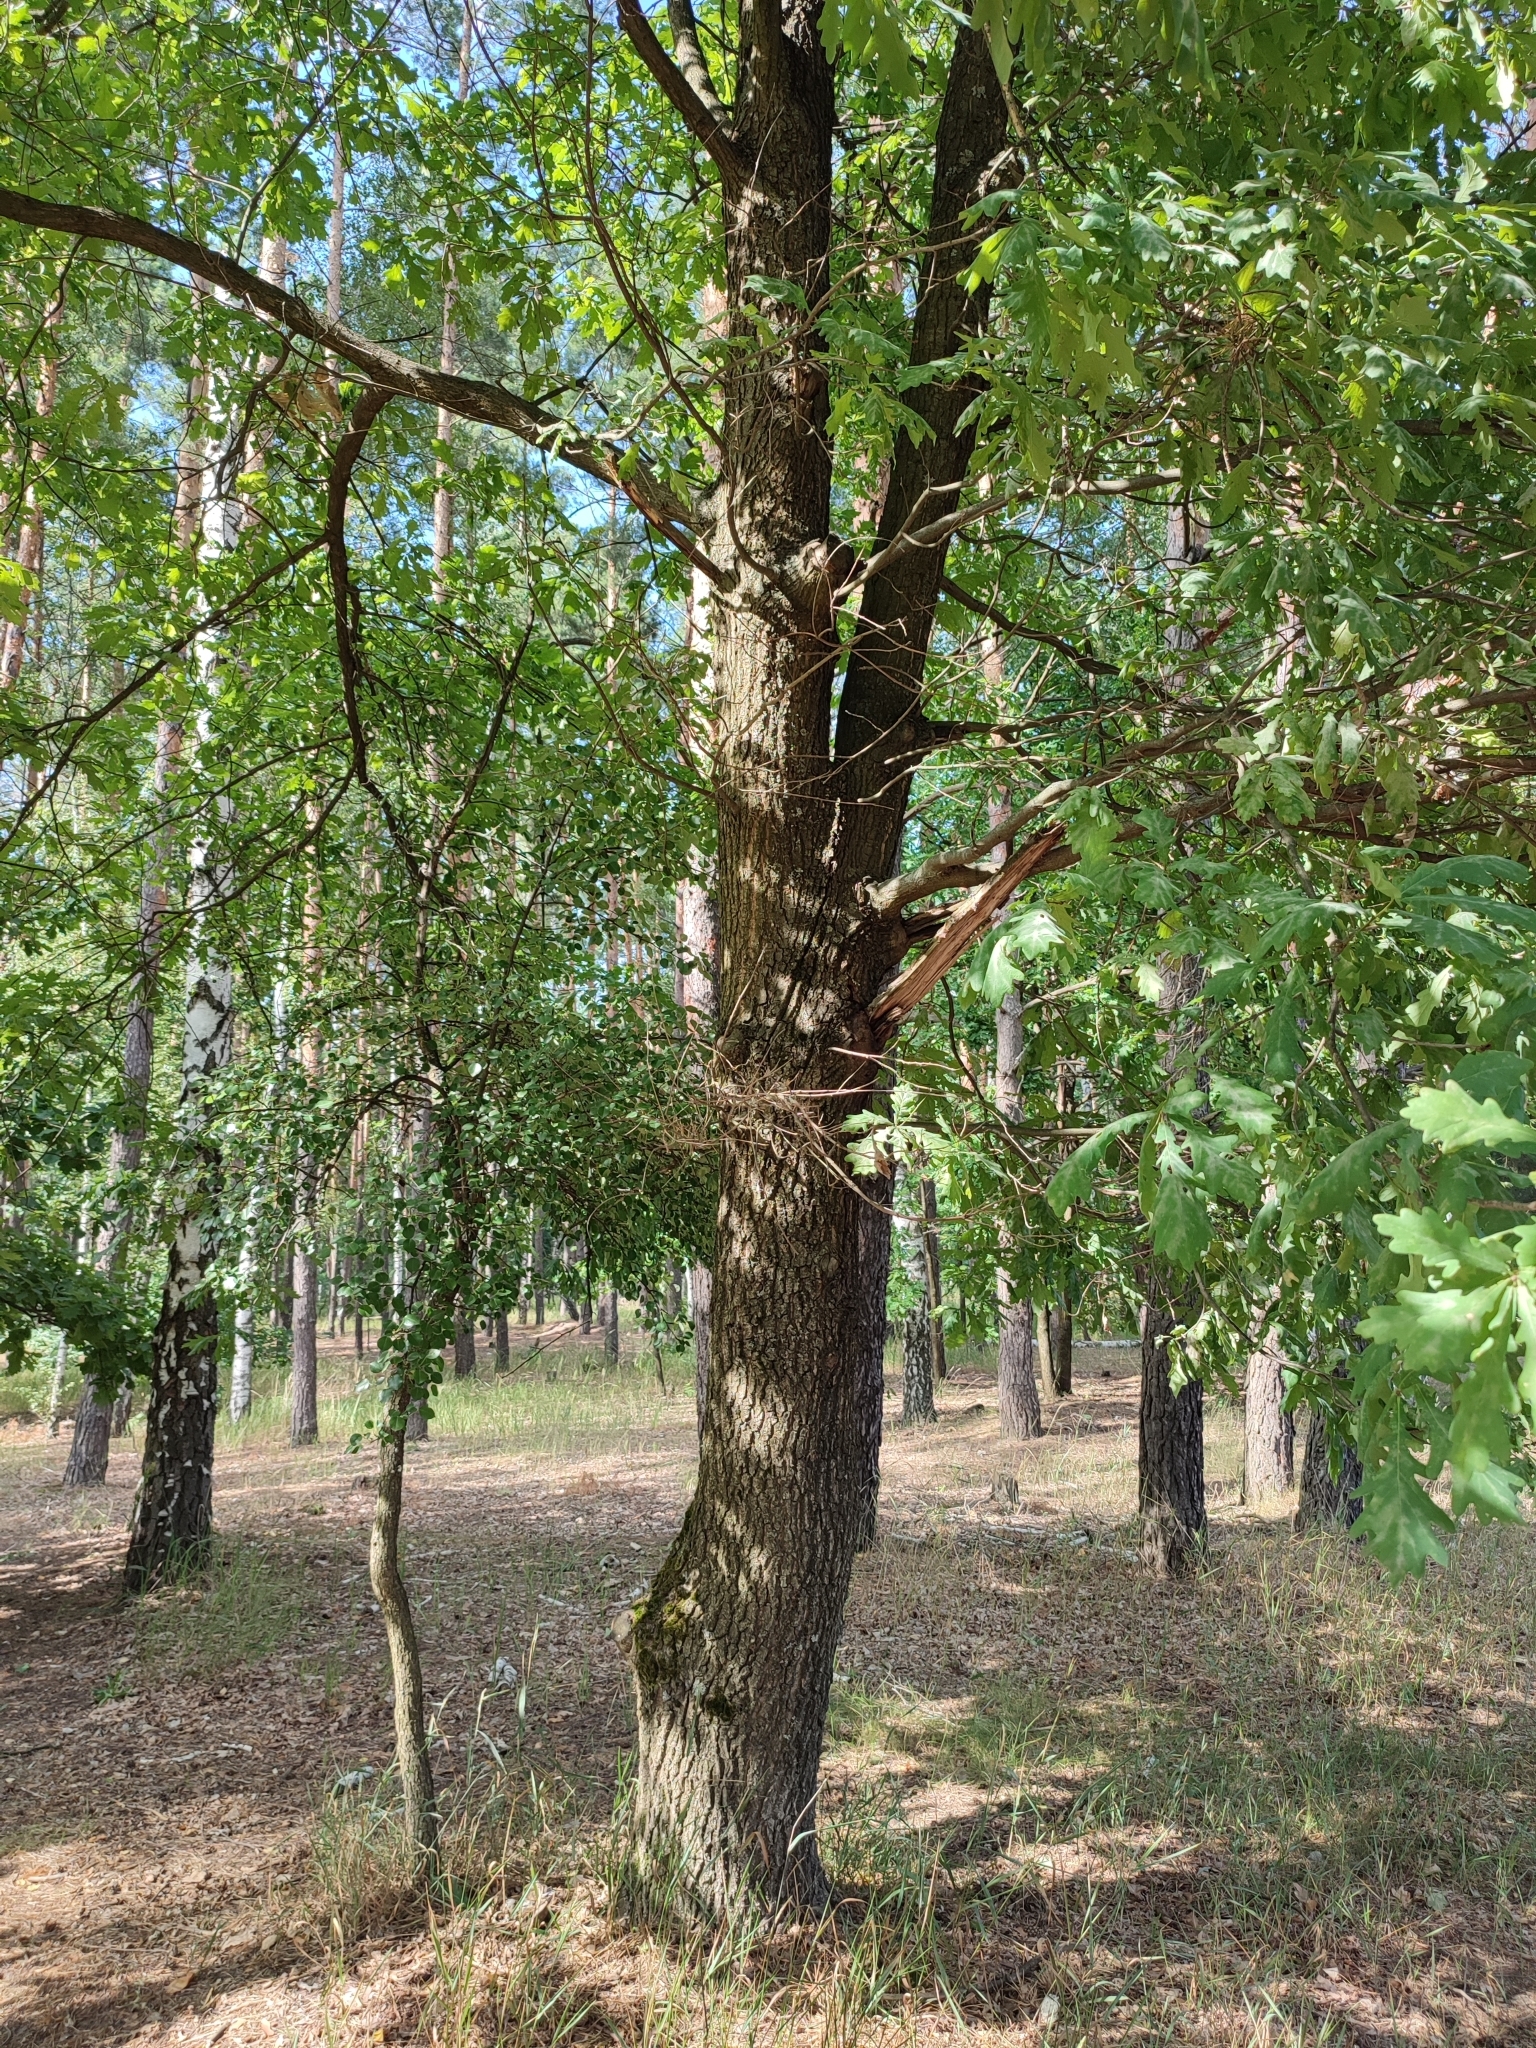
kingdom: Plantae
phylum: Tracheophyta
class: Magnoliopsida
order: Fagales
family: Fagaceae
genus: Quercus
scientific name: Quercus robur
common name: Pedunculate oak
